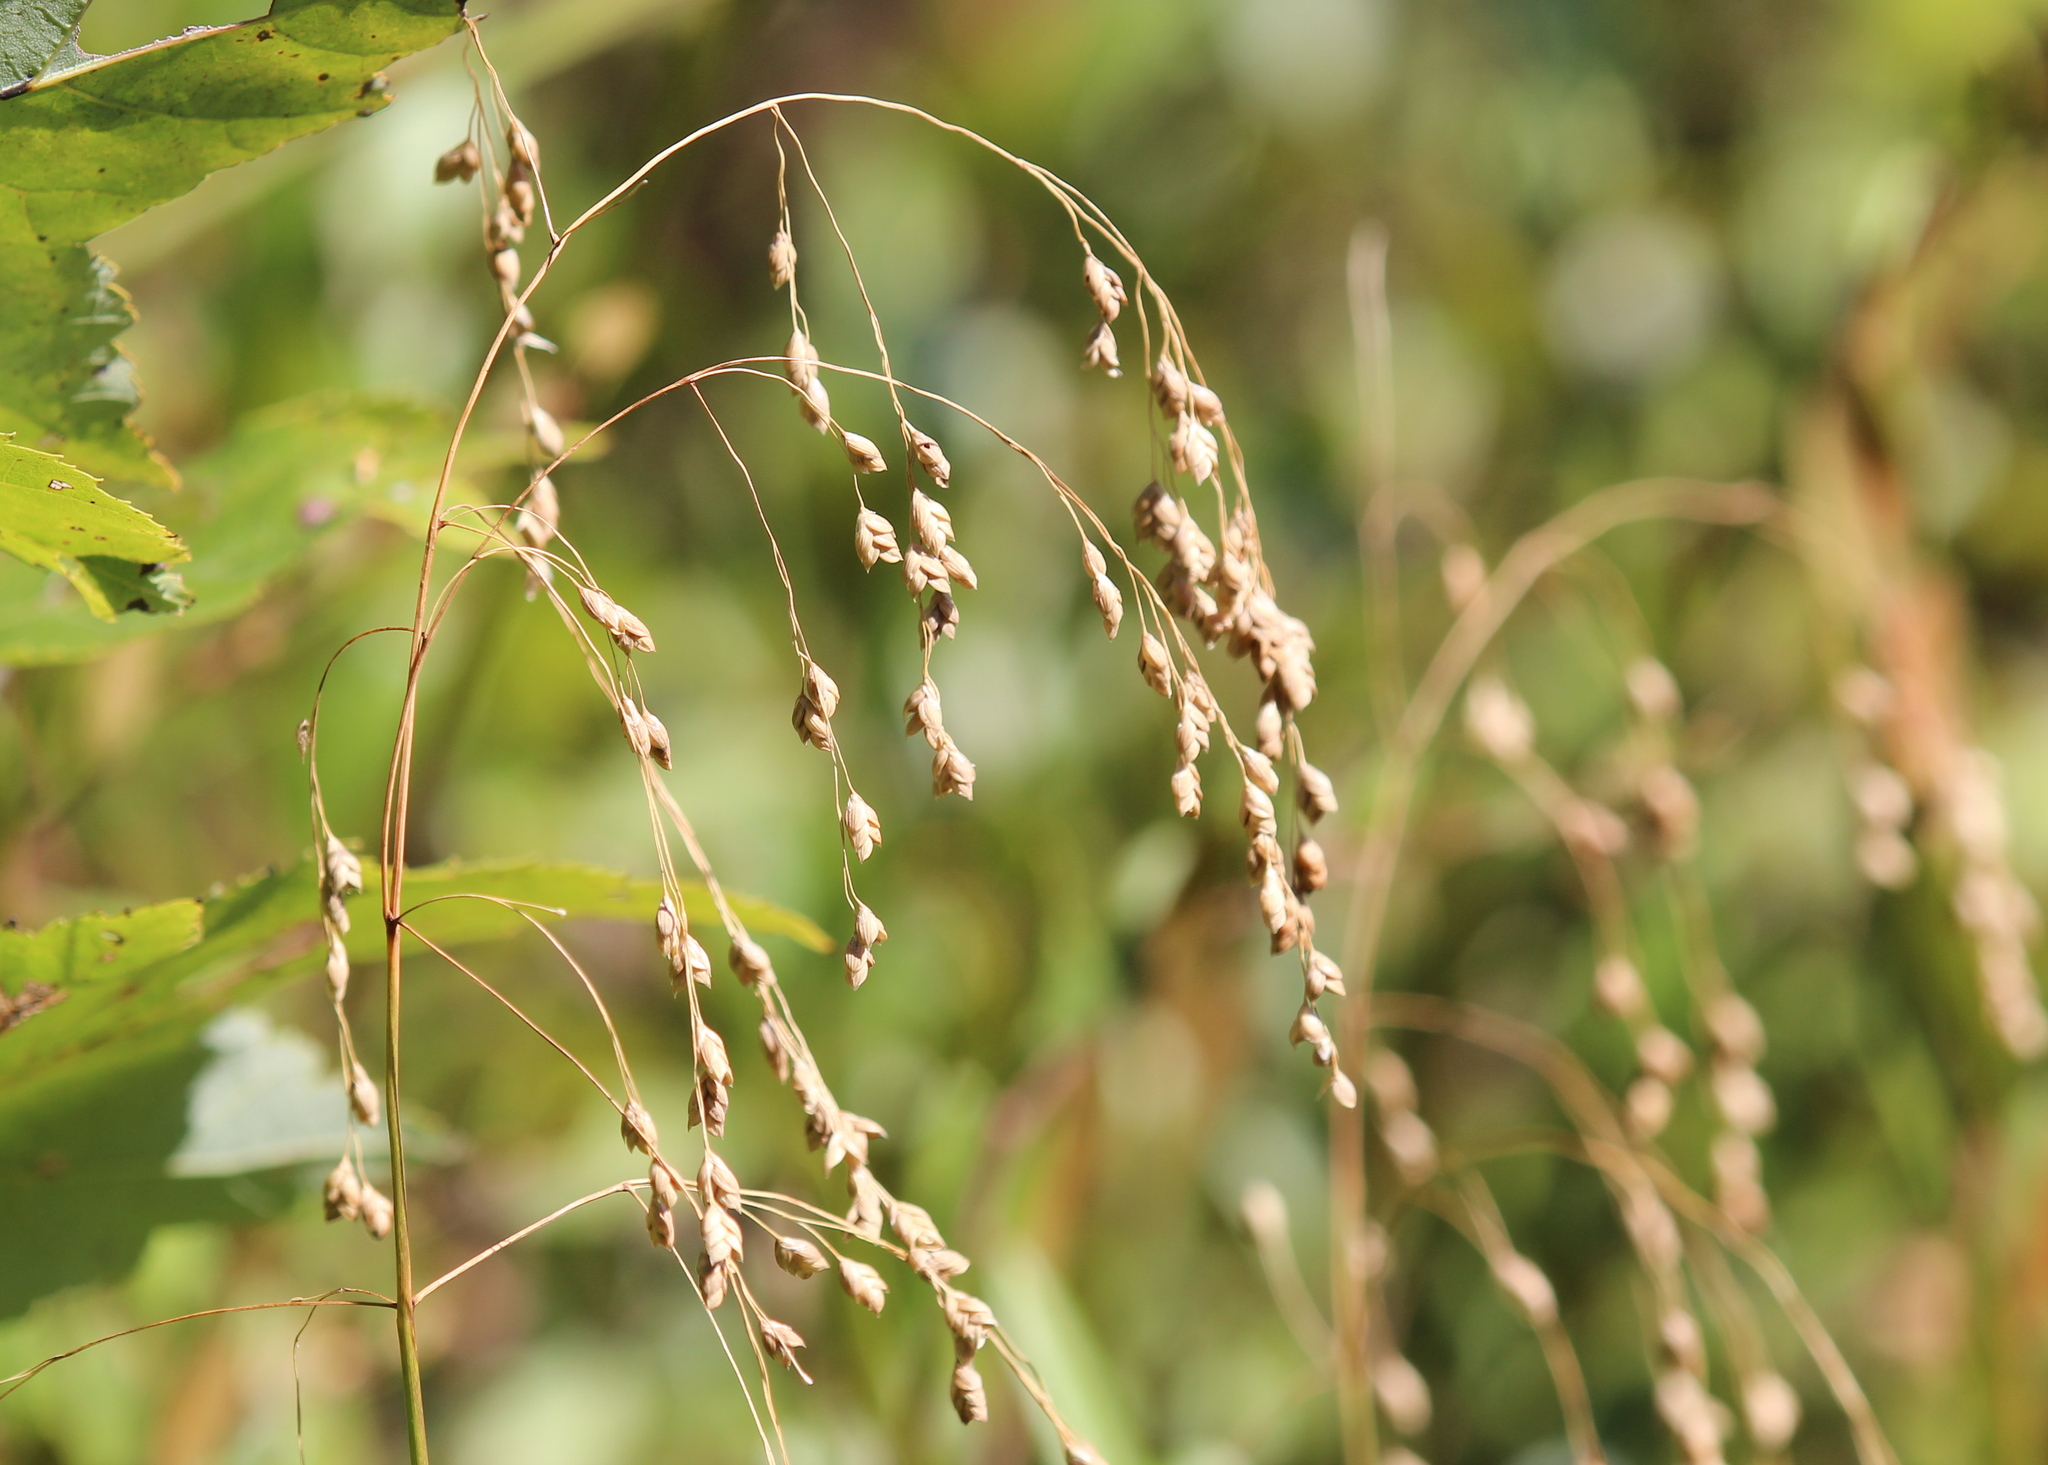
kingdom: Plantae
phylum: Tracheophyta
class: Liliopsida
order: Poales
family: Poaceae
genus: Glyceria
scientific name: Glyceria canadensis
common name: Canada mannagrass
